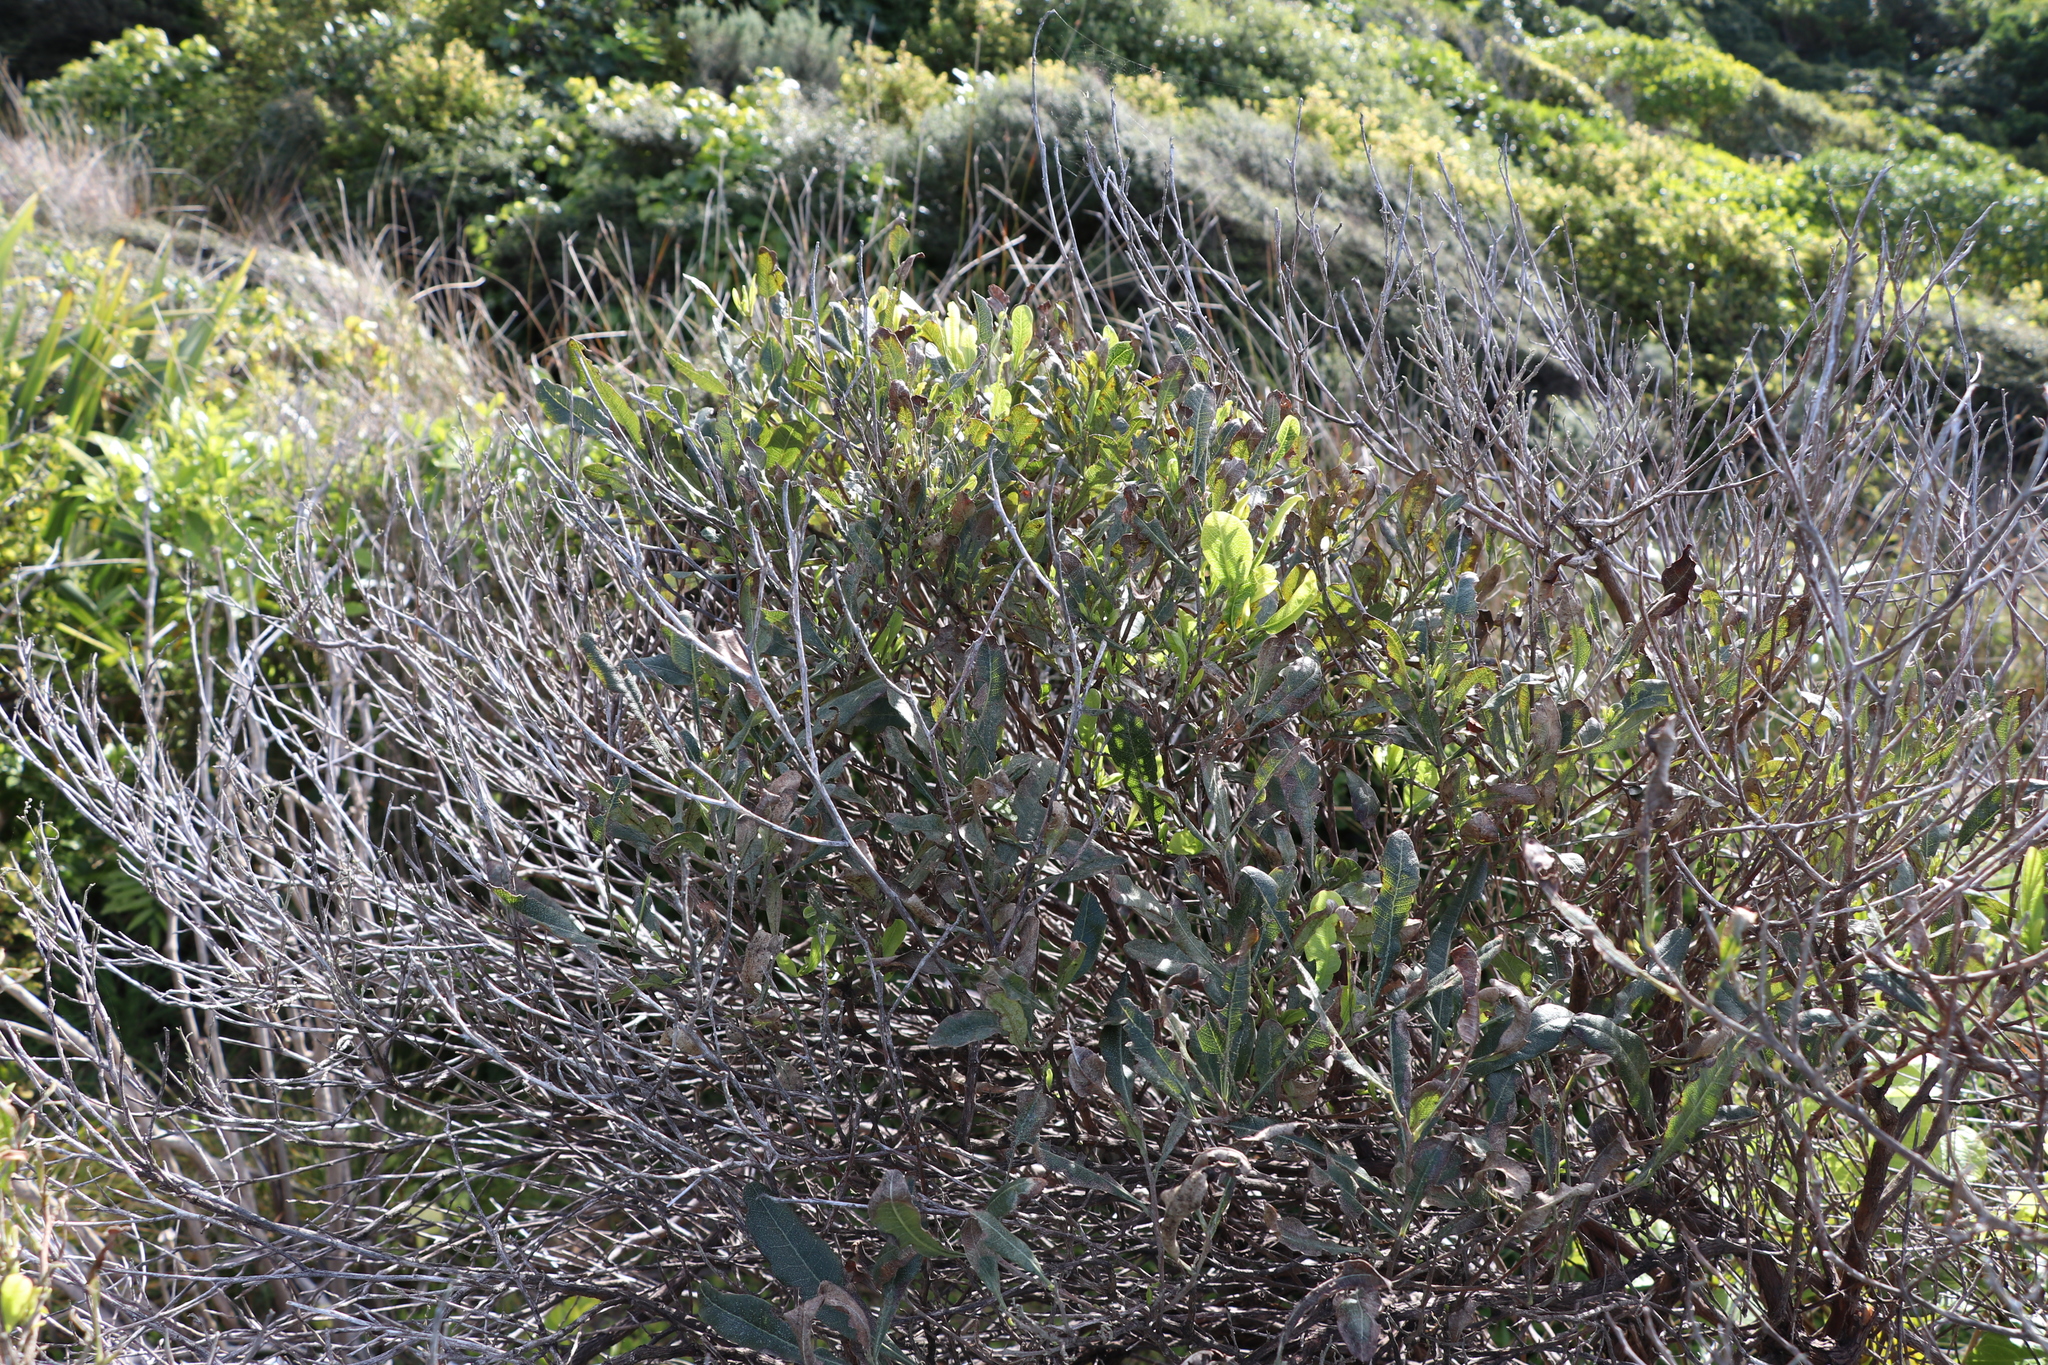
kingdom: Plantae
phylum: Tracheophyta
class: Magnoliopsida
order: Sapindales
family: Sapindaceae
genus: Dodonaea
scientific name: Dodonaea viscosa
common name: Hopbush
